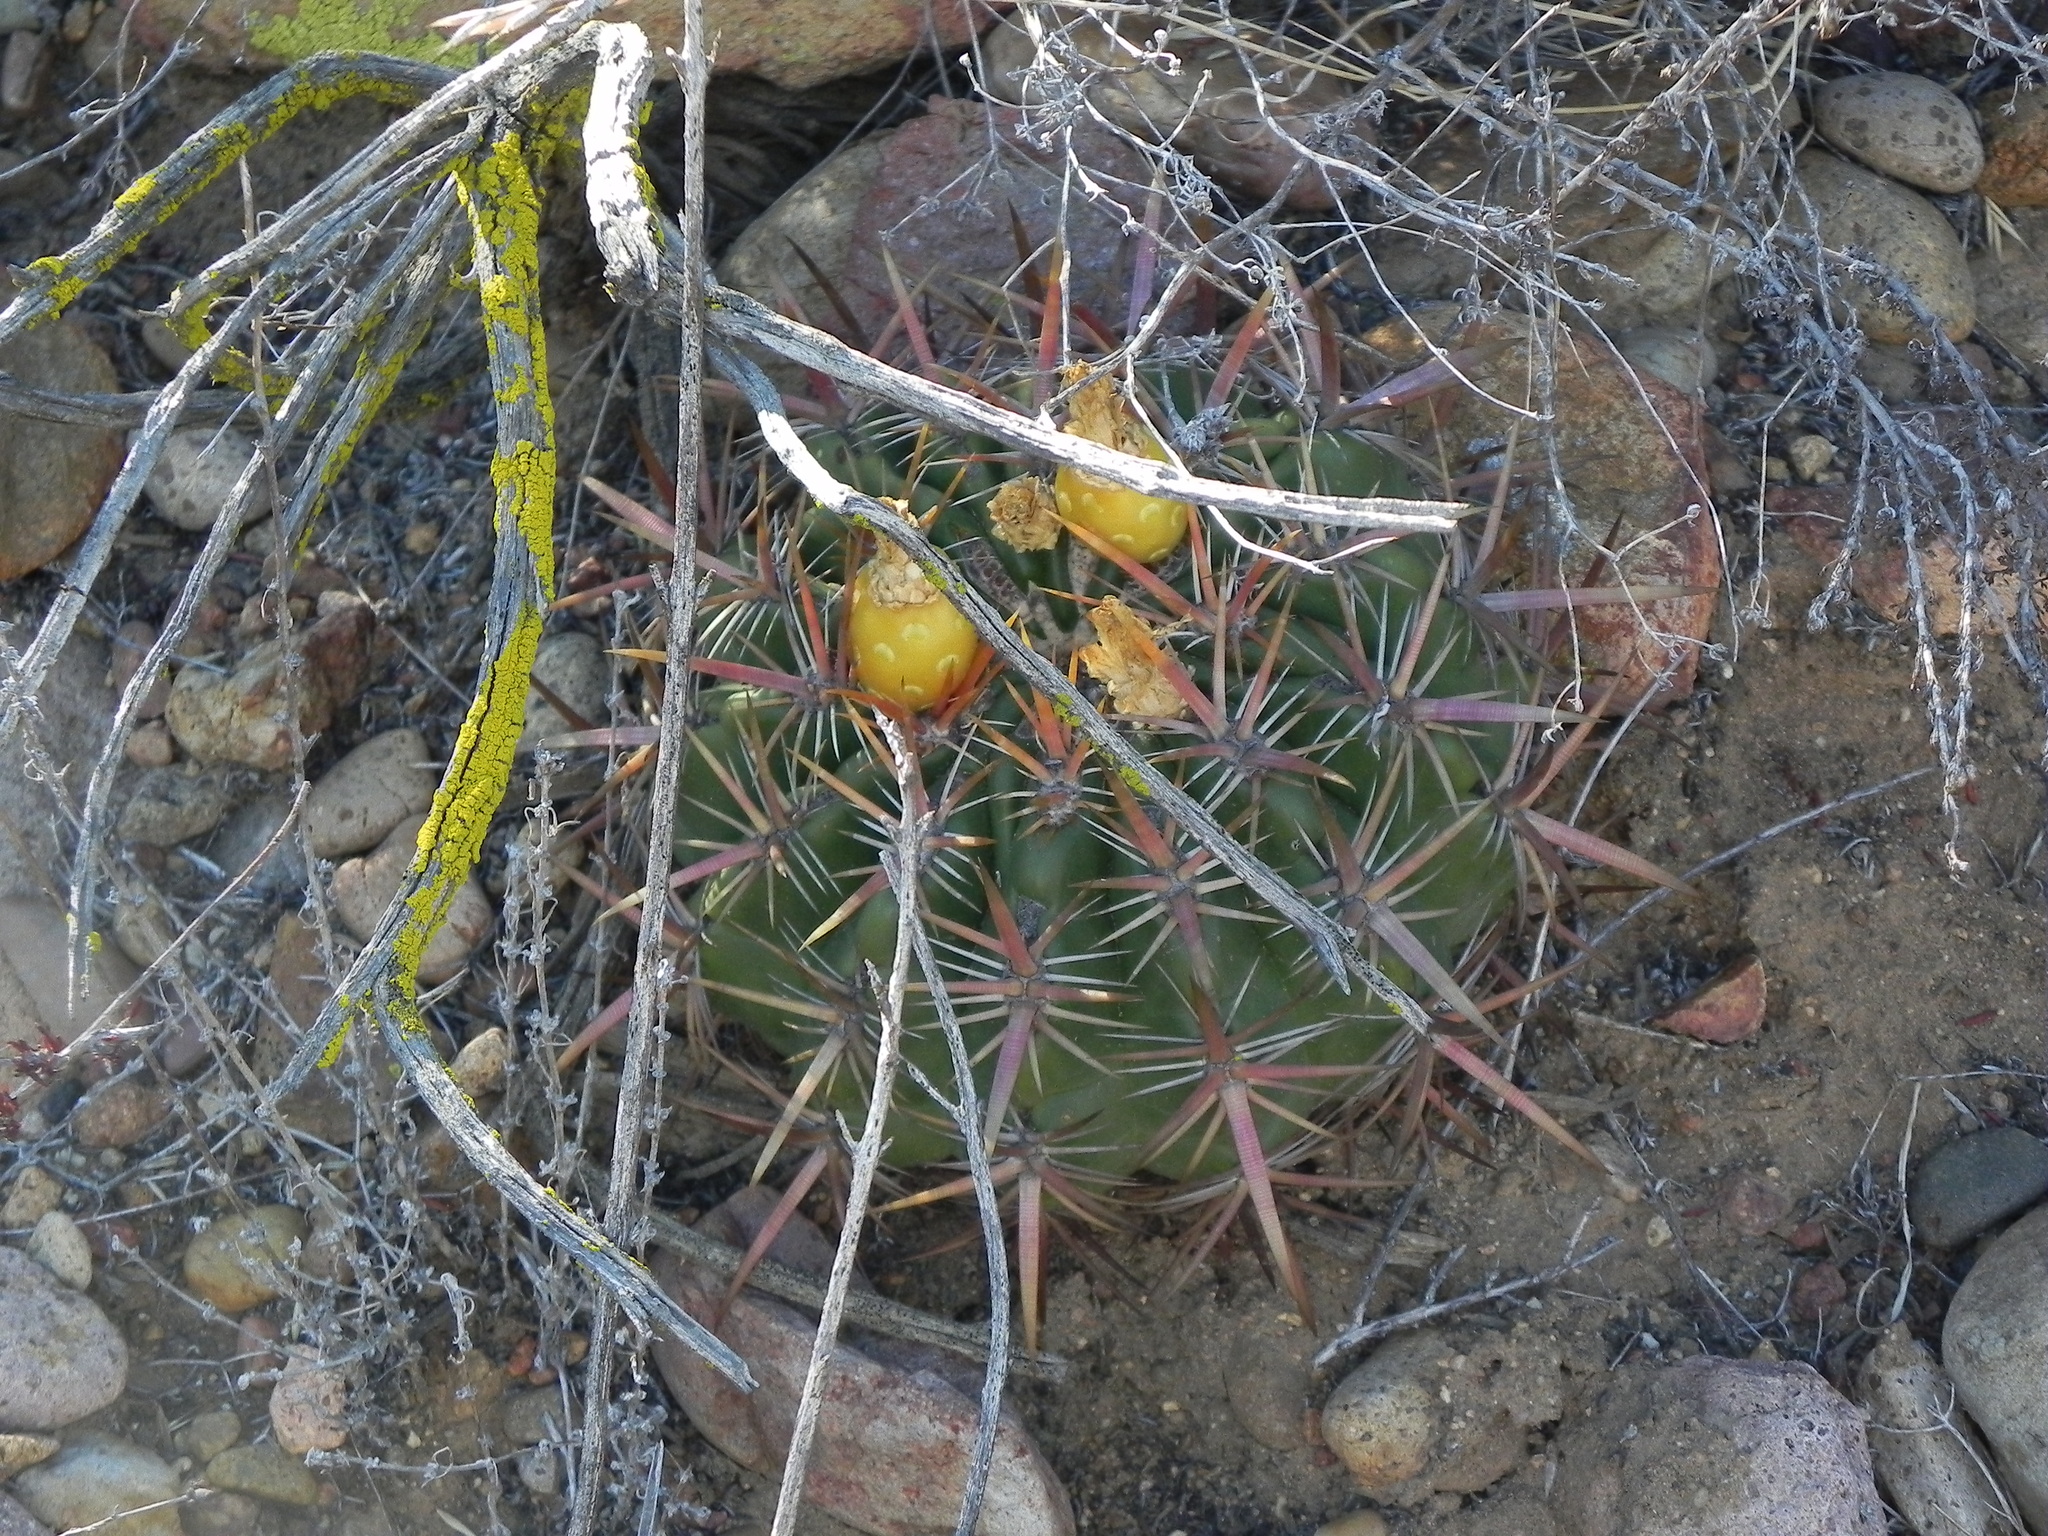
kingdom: Plantae
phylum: Tracheophyta
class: Magnoliopsida
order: Caryophyllales
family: Cactaceae
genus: Ferocactus
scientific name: Ferocactus viridescens
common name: San diego barrel cactus
